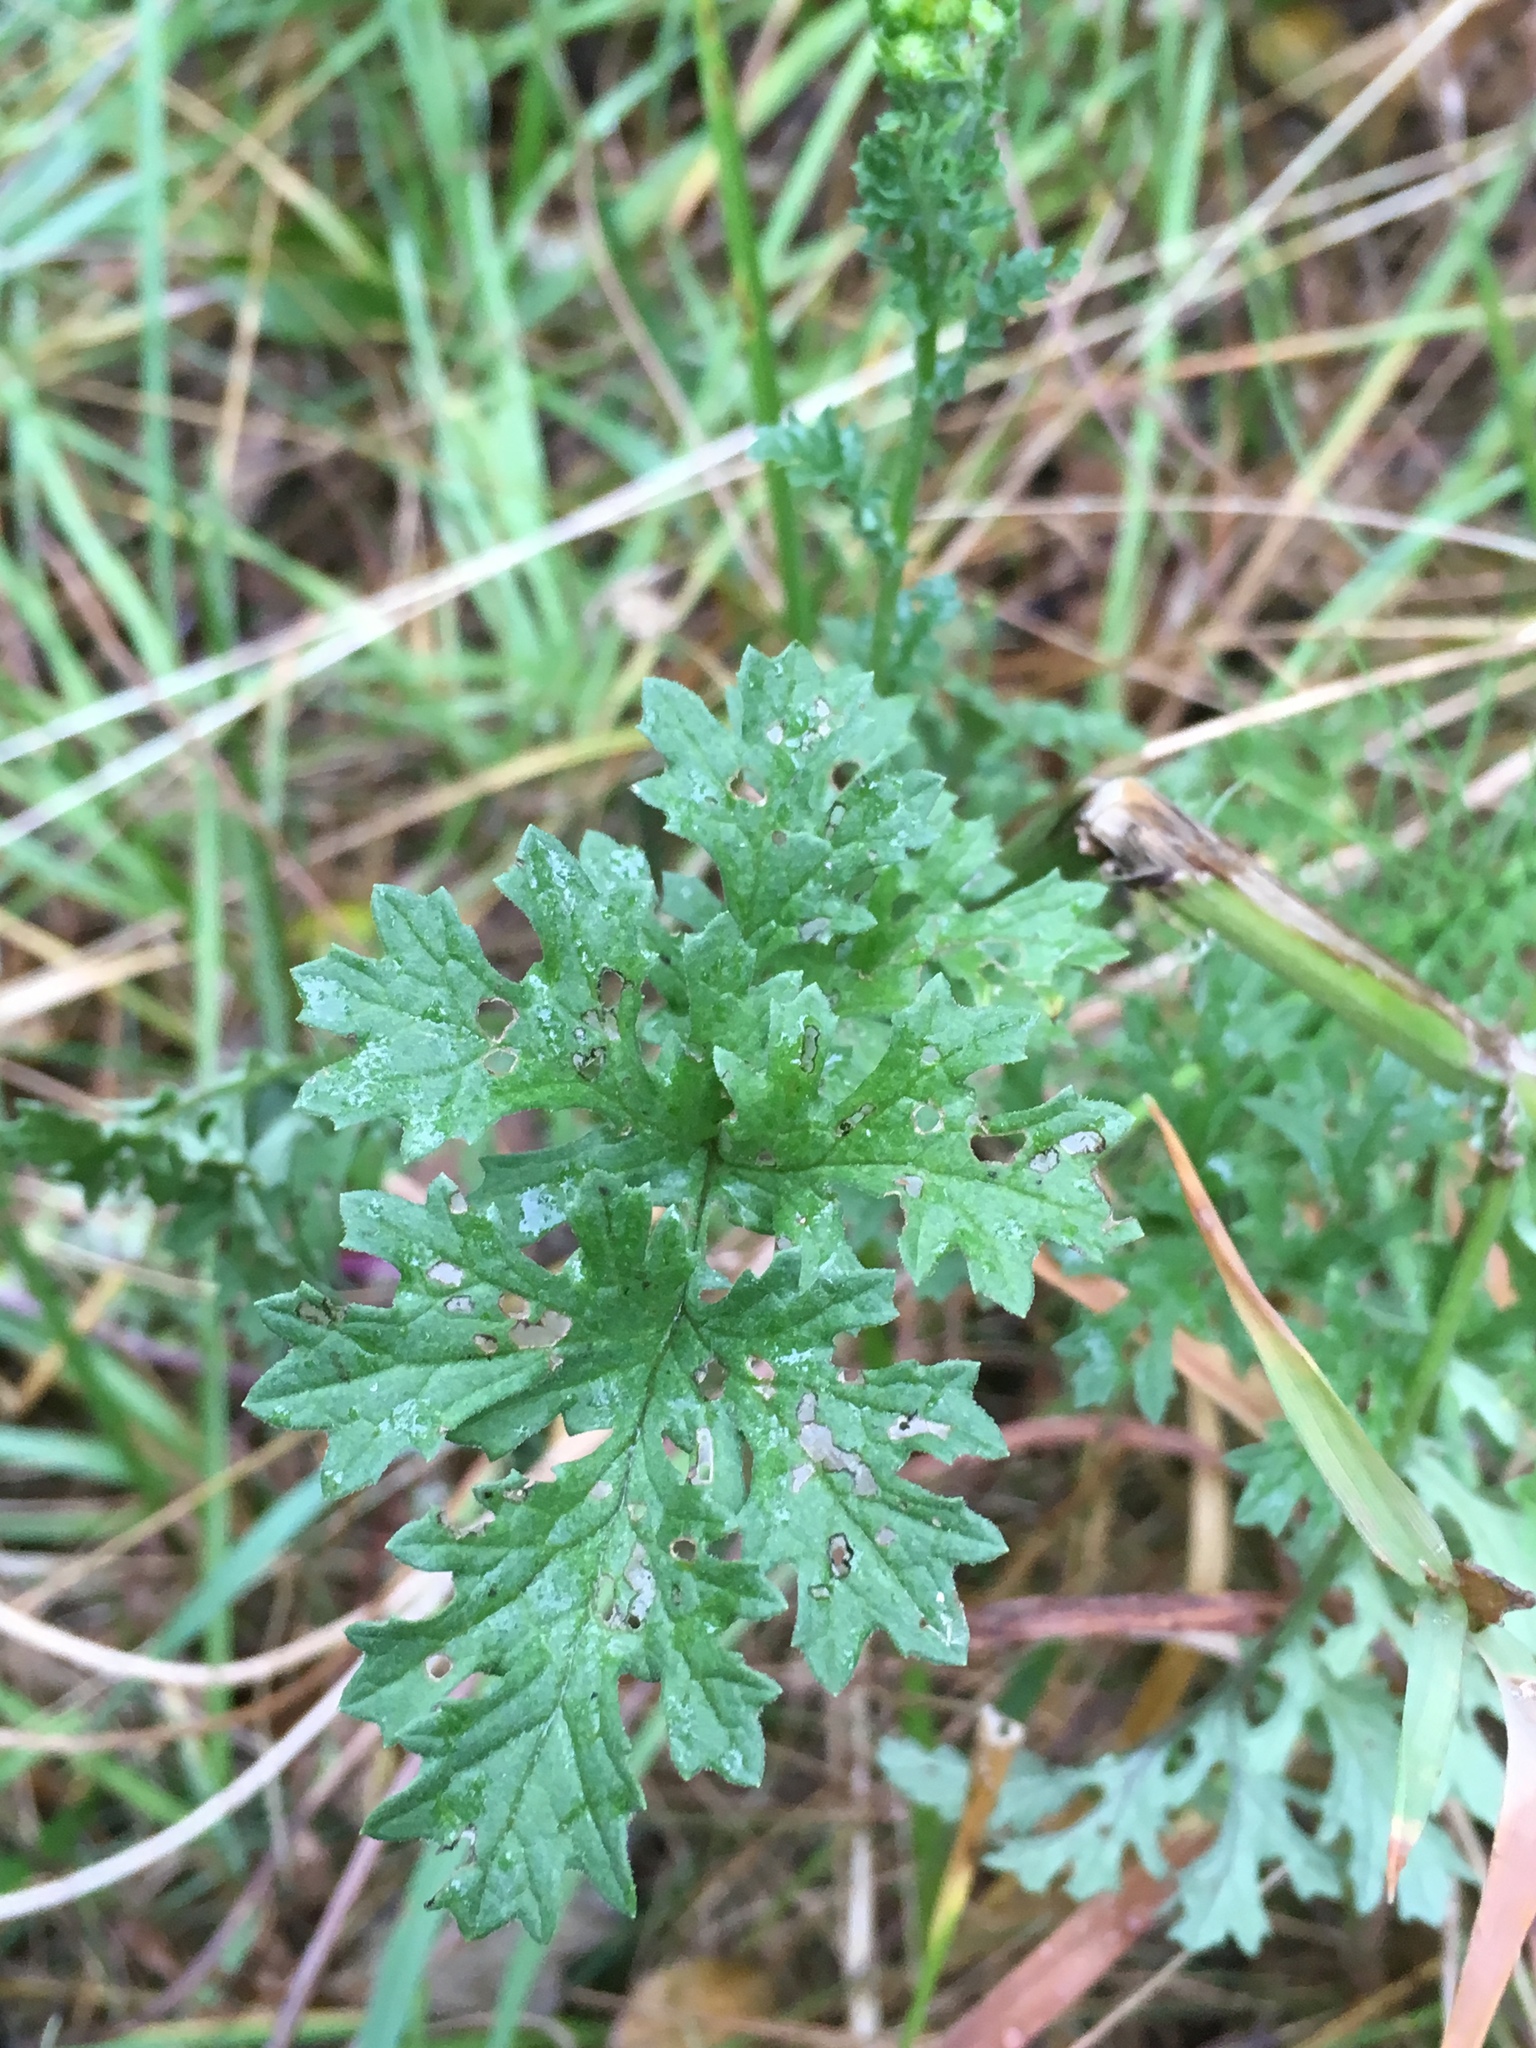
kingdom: Plantae
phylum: Tracheophyta
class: Magnoliopsida
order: Asterales
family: Asteraceae
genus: Jacobaea
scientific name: Jacobaea vulgaris
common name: Stinking willie
